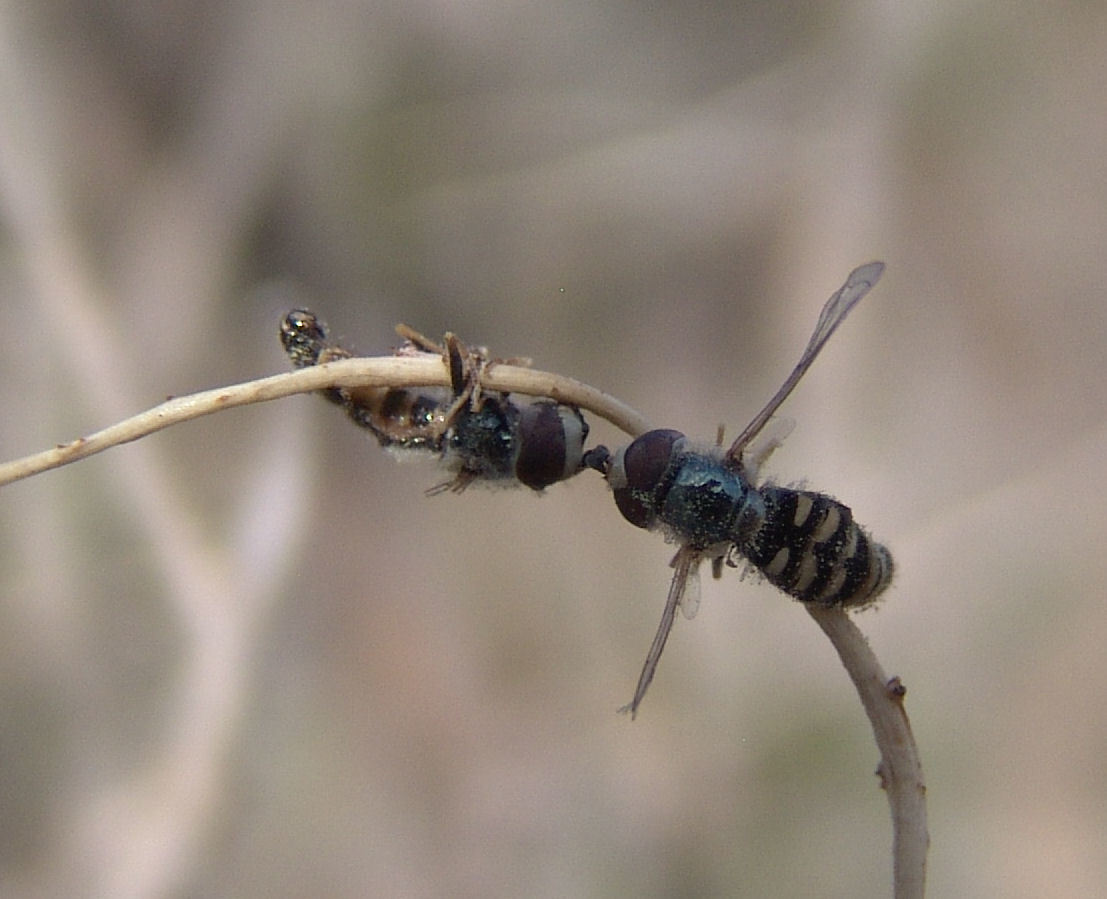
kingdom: Animalia
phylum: Arthropoda
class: Insecta
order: Diptera
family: Syrphidae
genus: Eupeodes
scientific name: Eupeodes volucris
